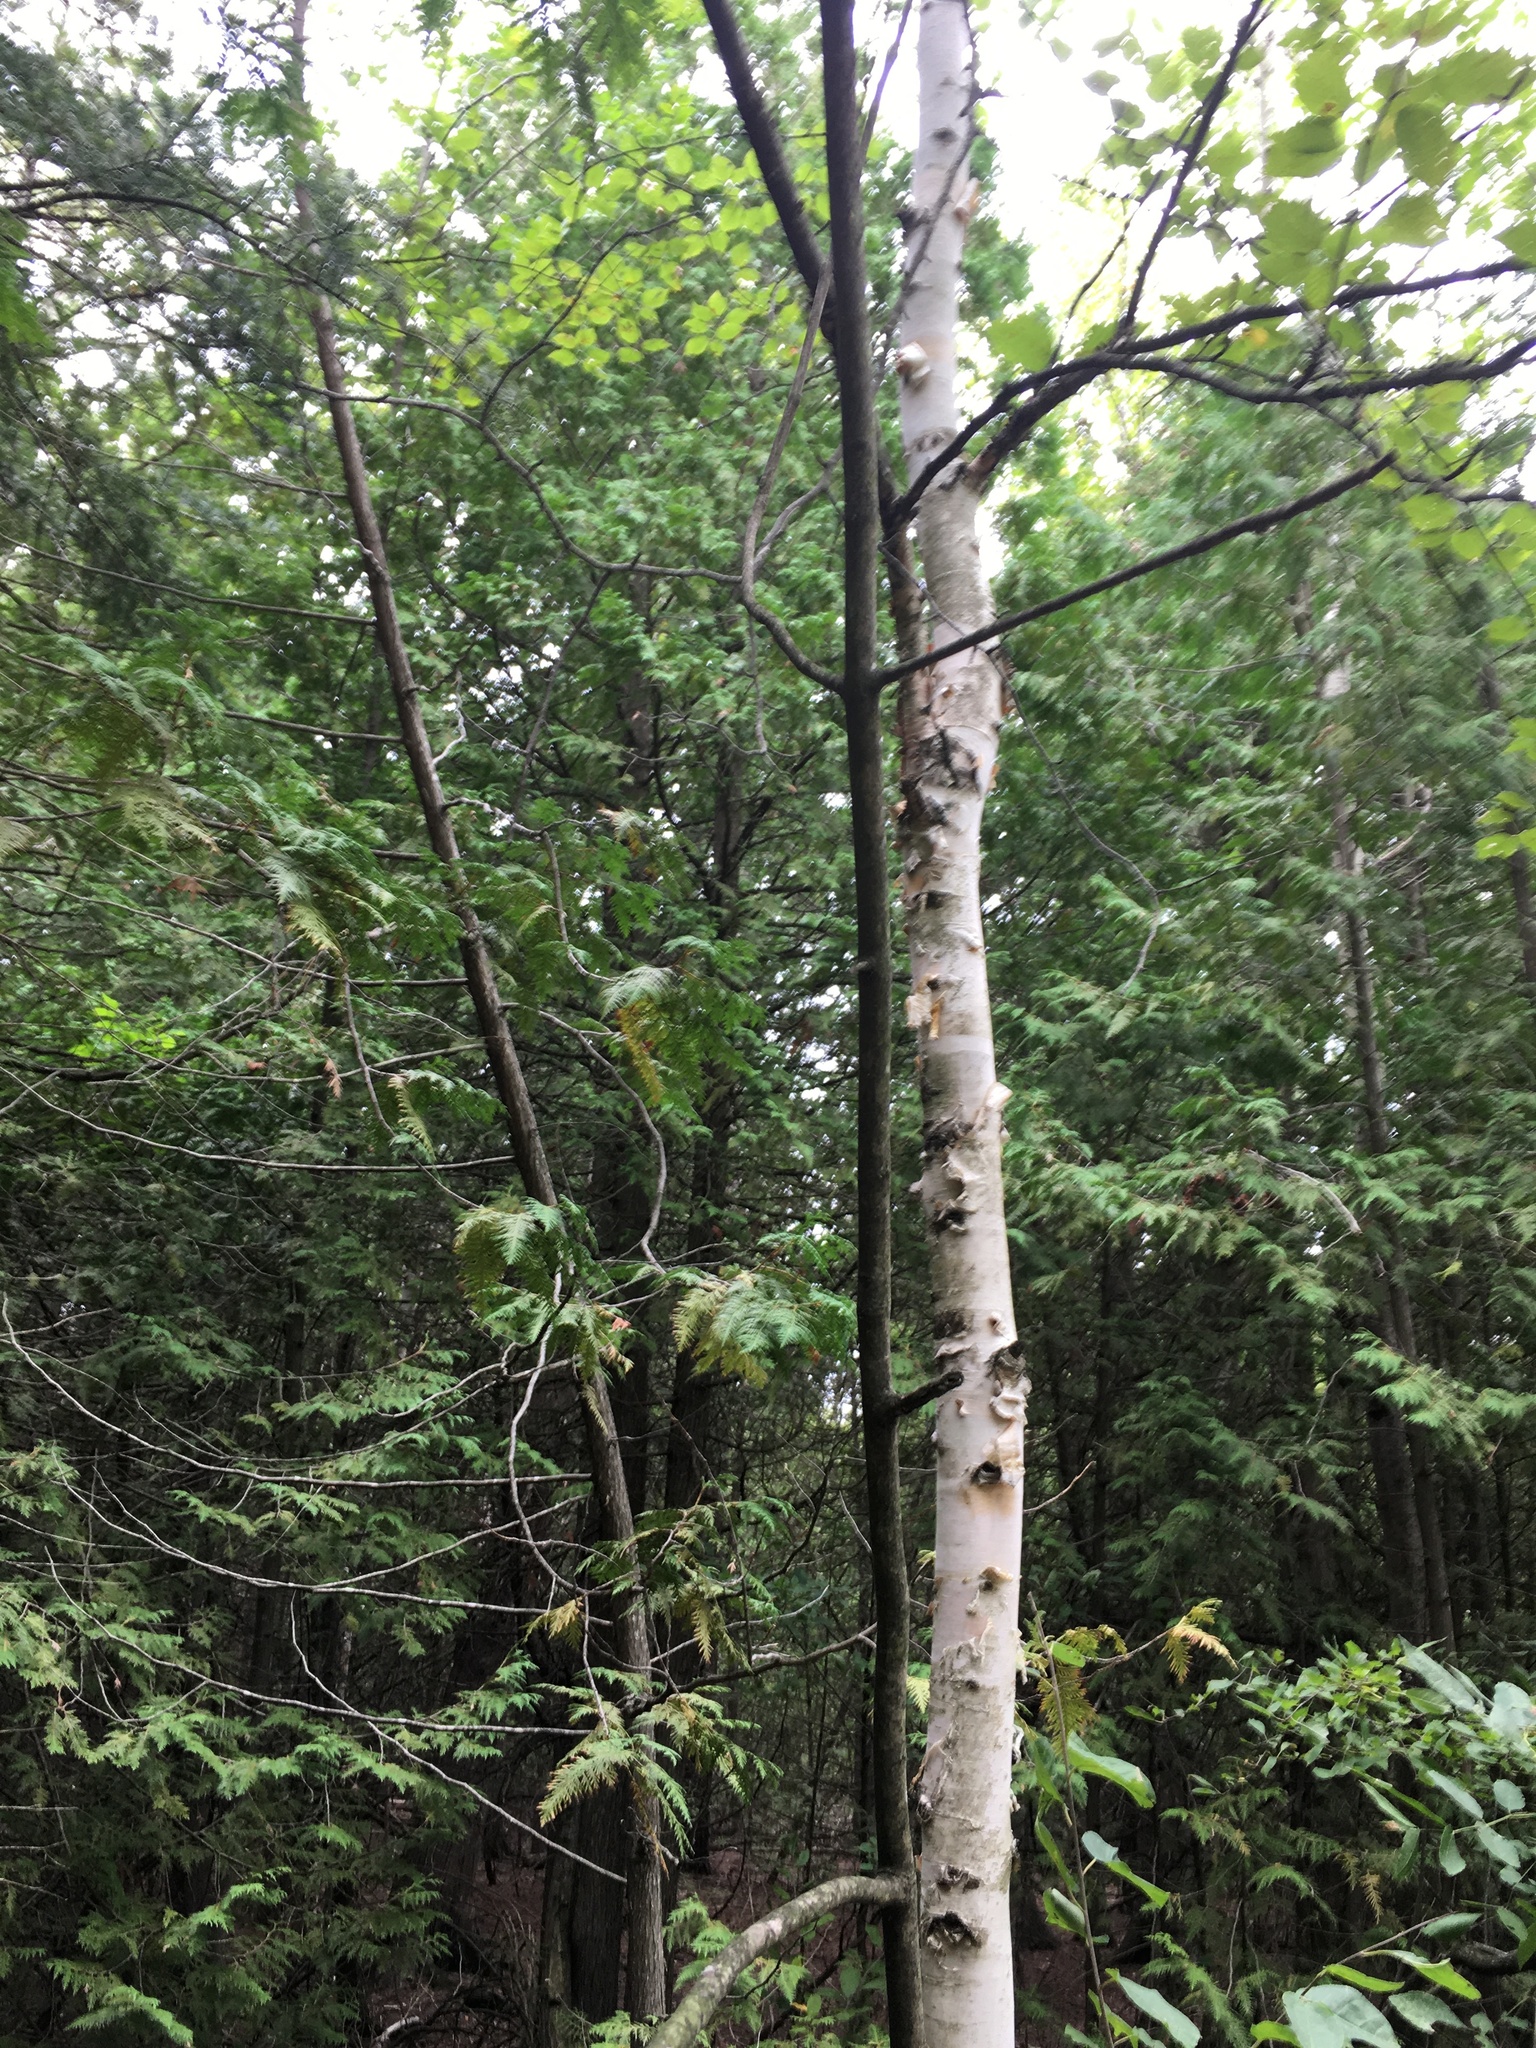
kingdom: Plantae
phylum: Tracheophyta
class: Magnoliopsida
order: Fagales
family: Betulaceae
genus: Betula
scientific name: Betula papyrifera
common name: Paper birch
